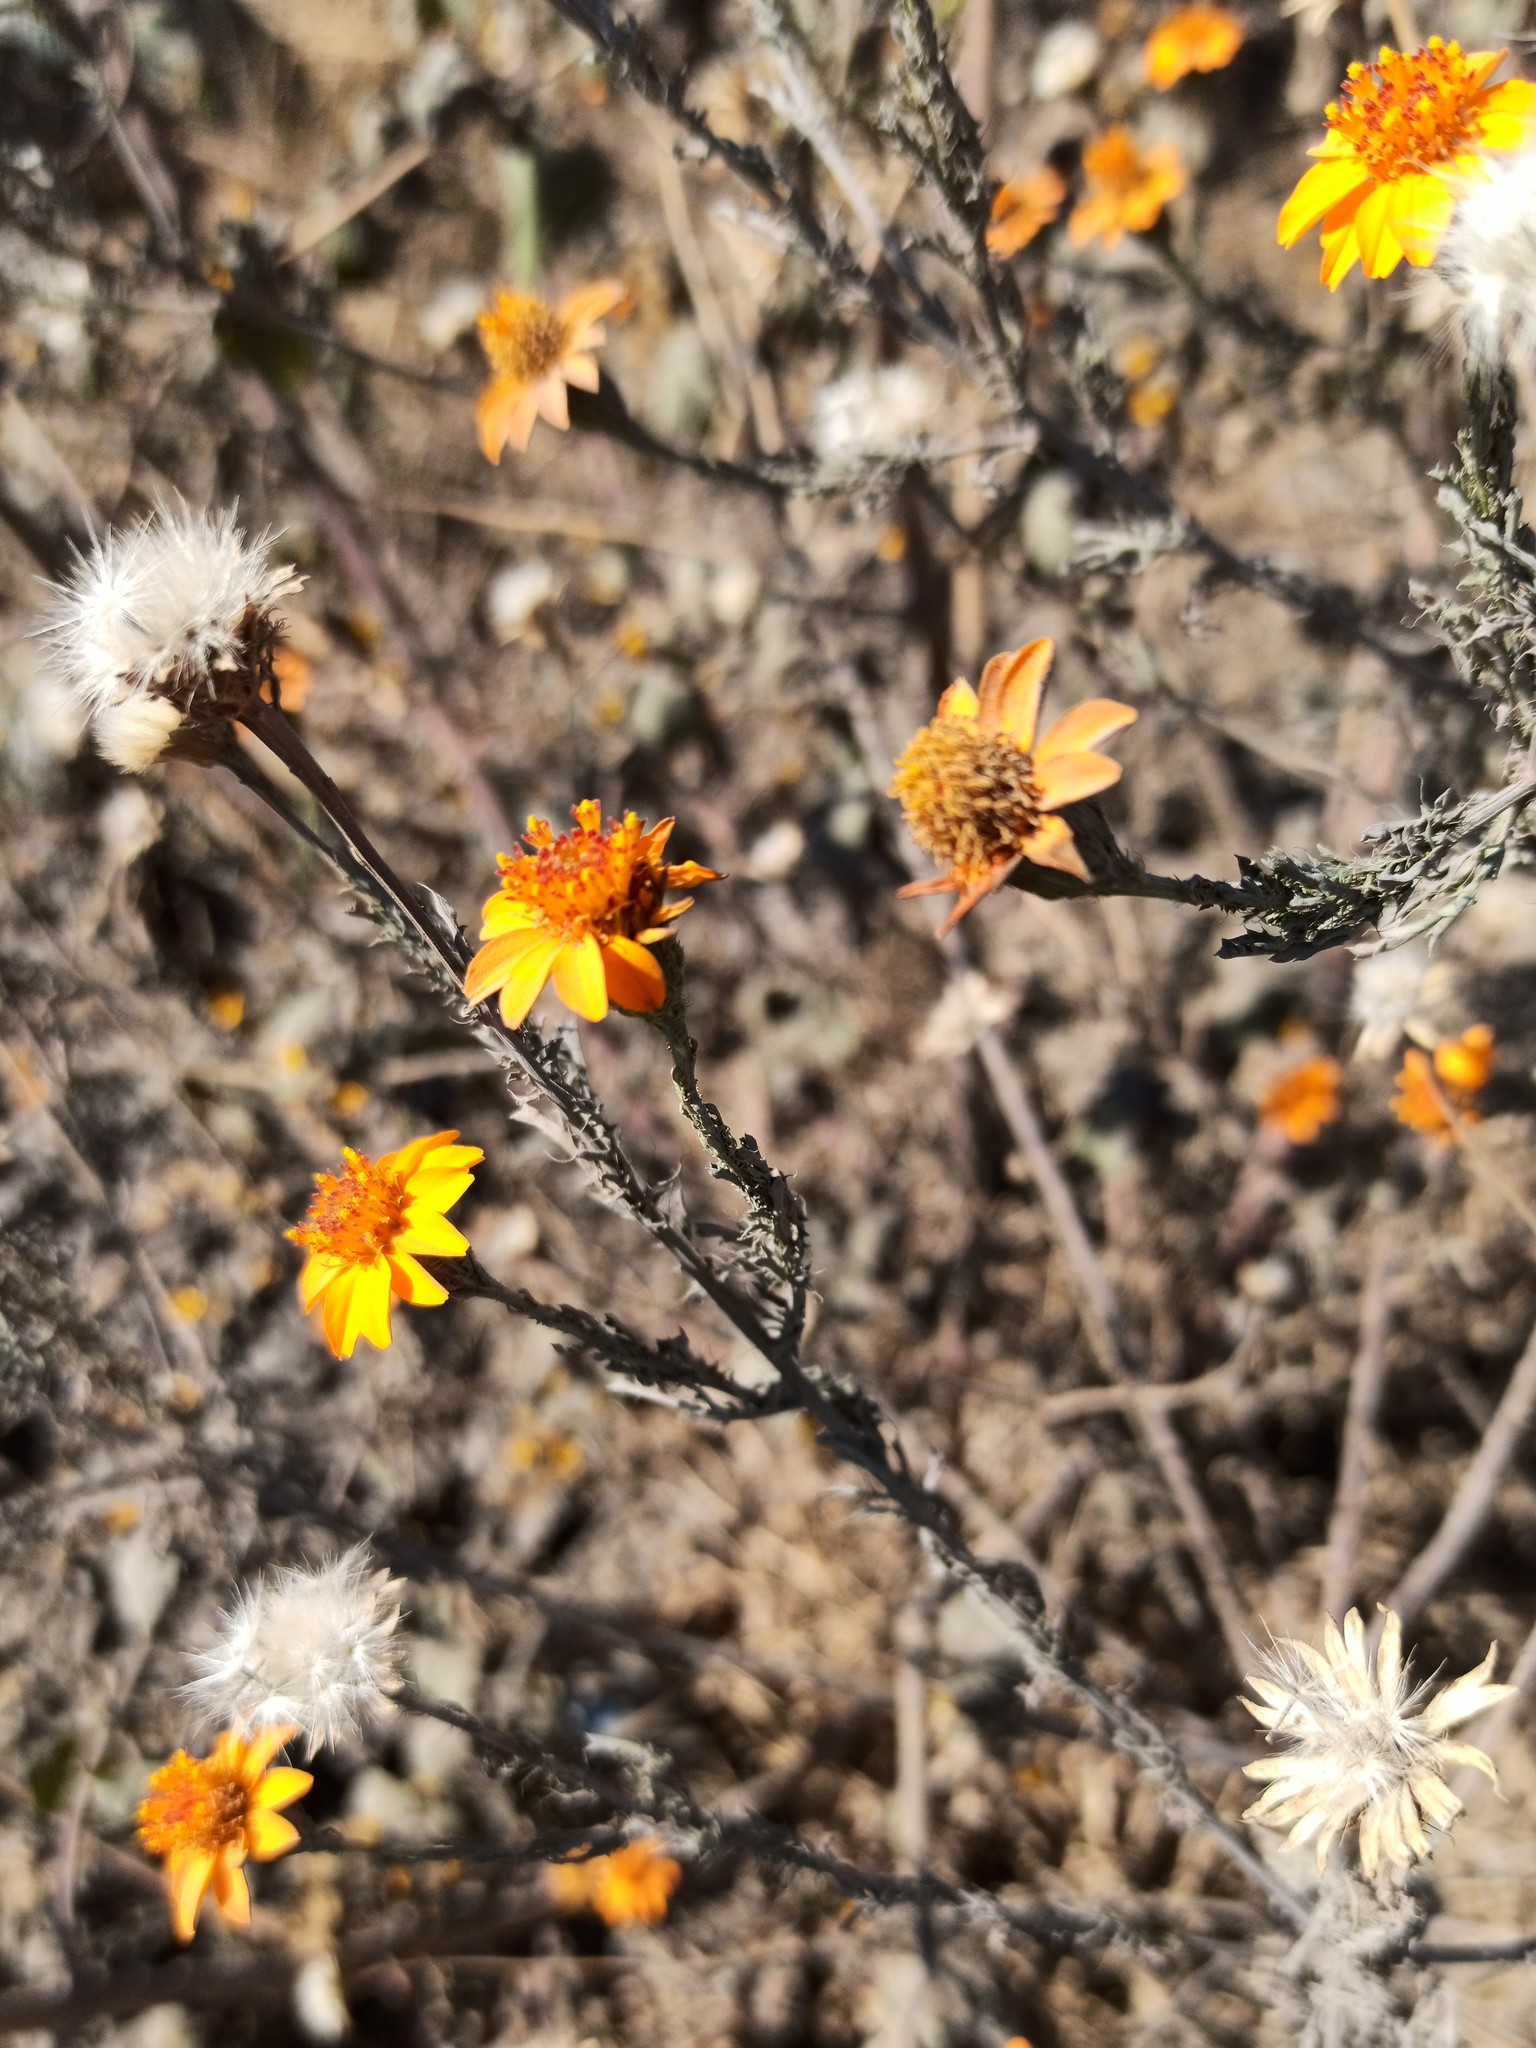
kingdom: Plantae
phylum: Tracheophyta
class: Magnoliopsida
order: Asterales
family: Asteraceae
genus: Adenophyllum
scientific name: Adenophyllum cancellatum
